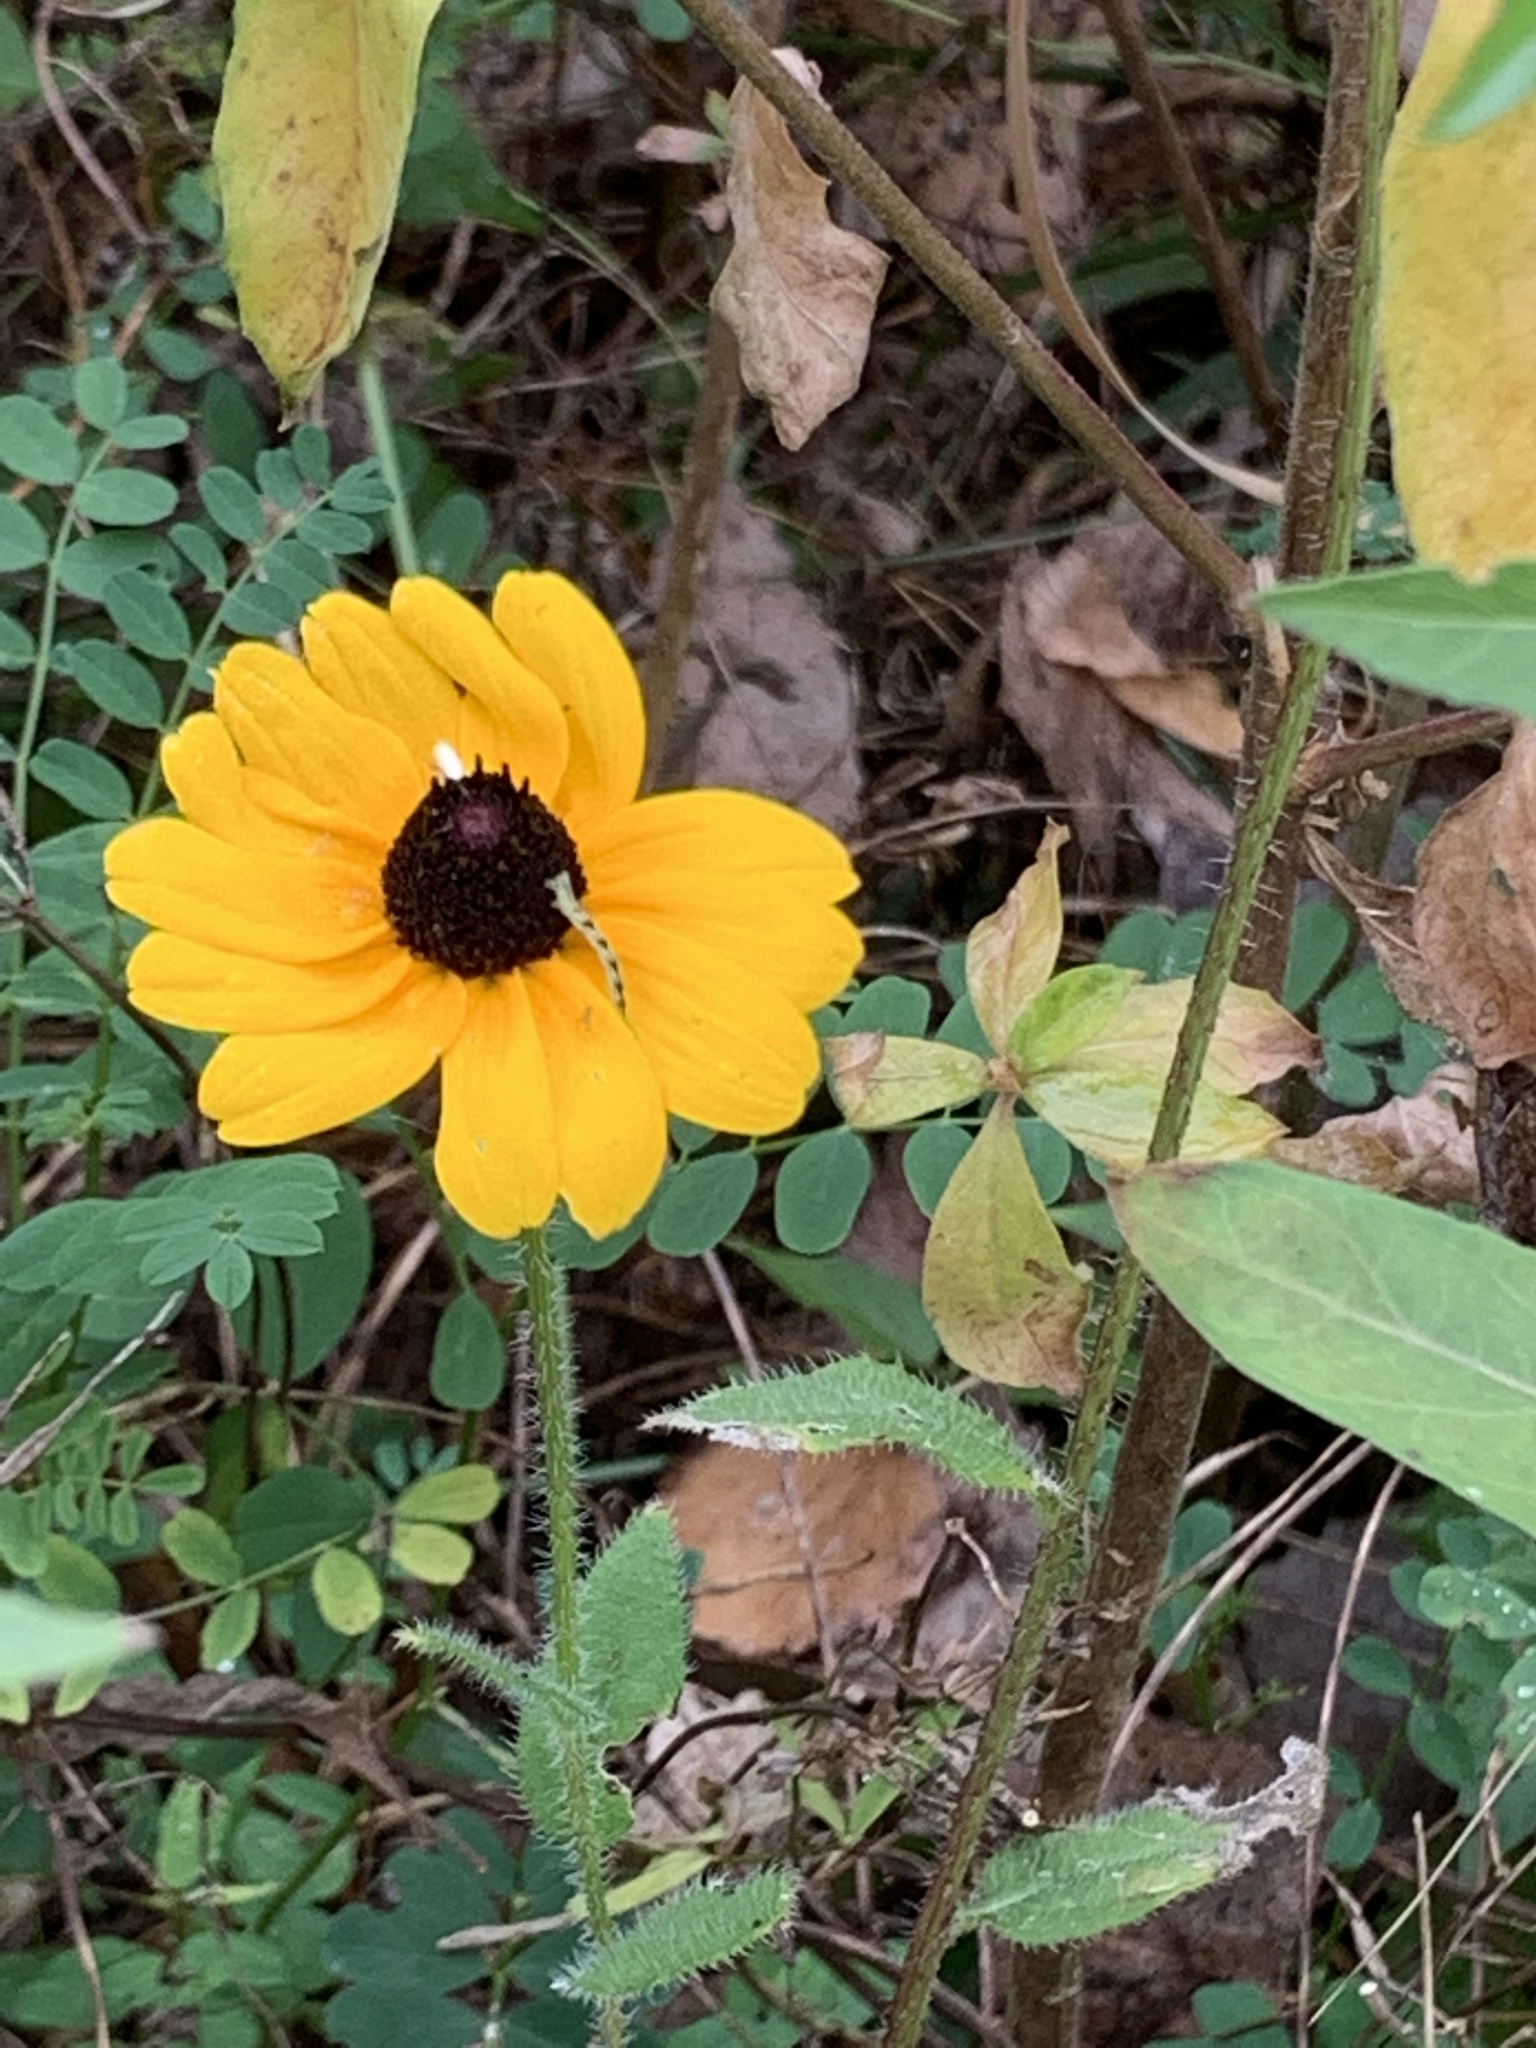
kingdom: Plantae
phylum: Tracheophyta
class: Magnoliopsida
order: Asterales
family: Asteraceae
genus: Rudbeckia
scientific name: Rudbeckia hirta
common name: Black-eyed-susan
